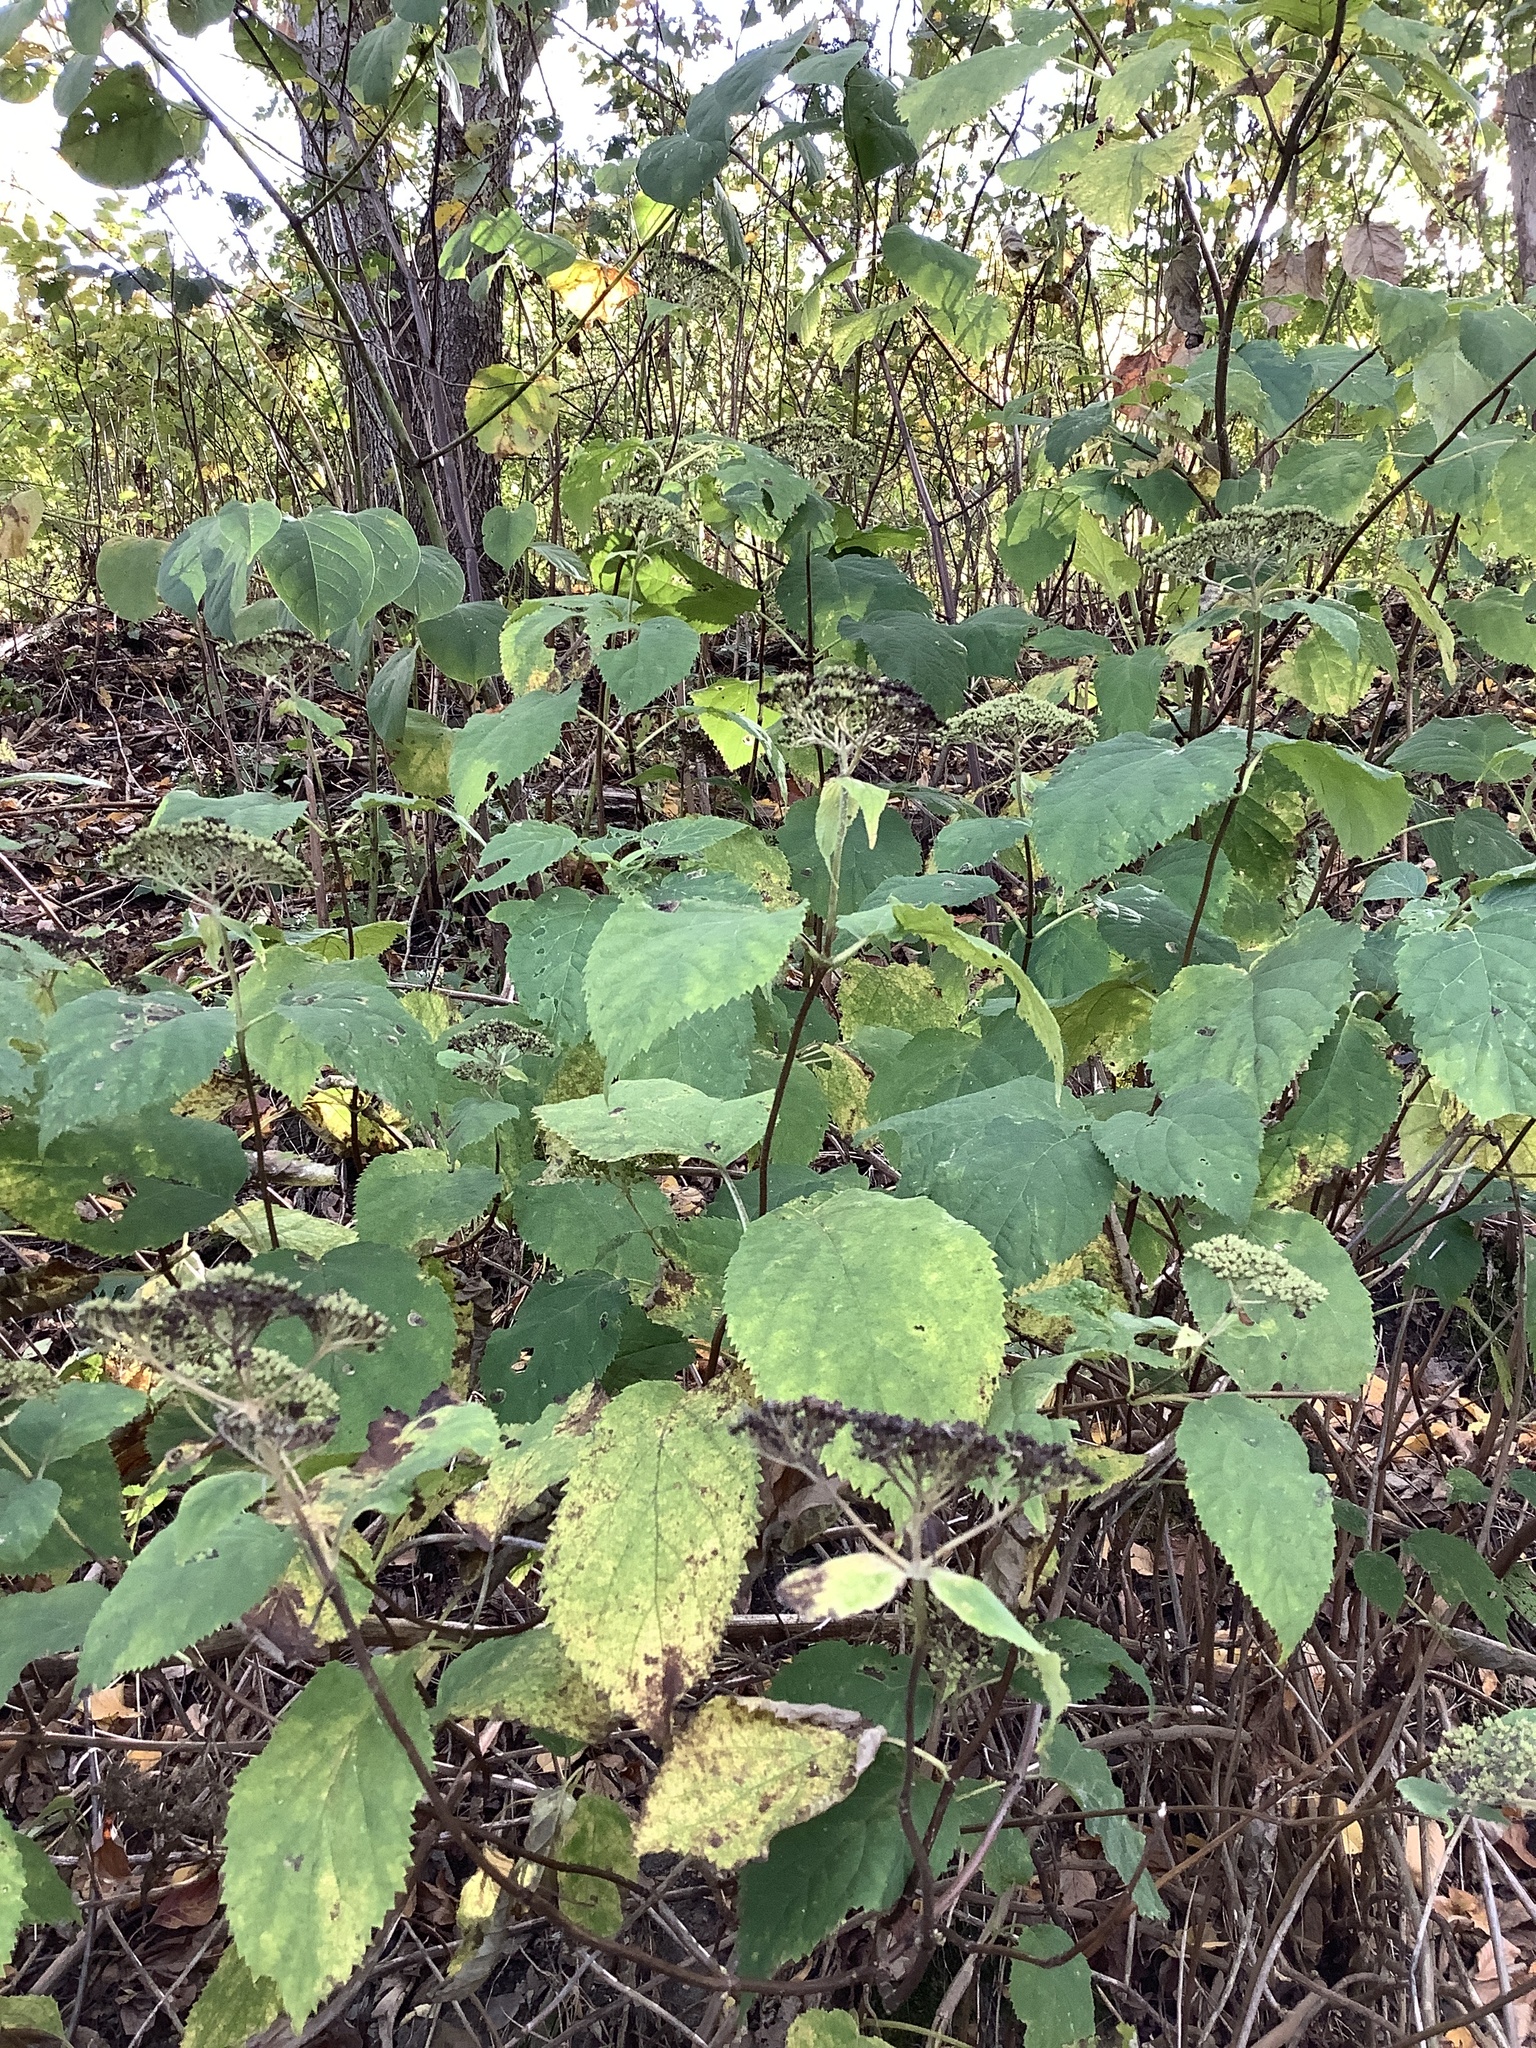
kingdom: Plantae
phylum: Tracheophyta
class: Magnoliopsida
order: Cornales
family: Hydrangeaceae
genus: Hydrangea
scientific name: Hydrangea arborescens
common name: Sevenbark
